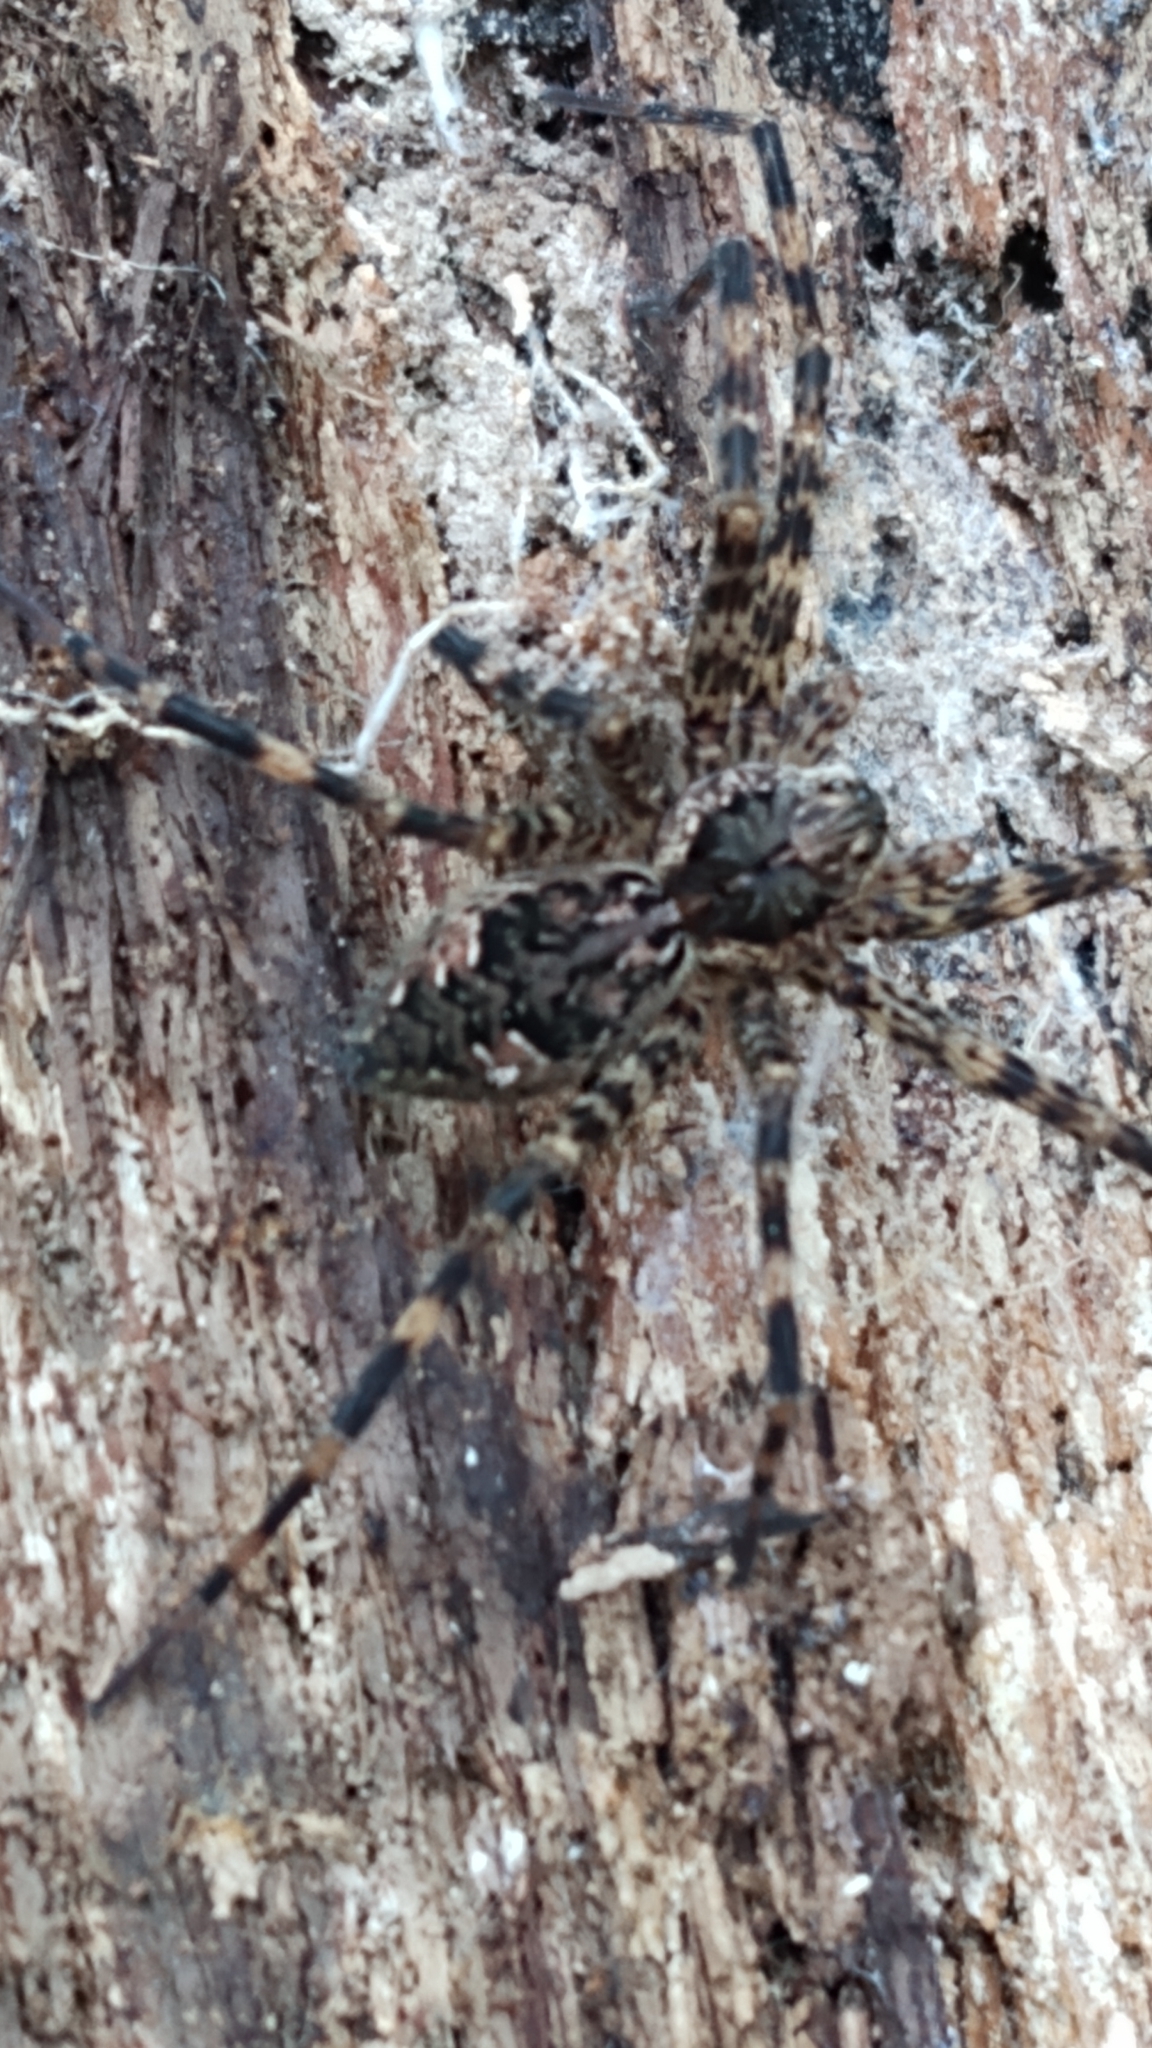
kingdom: Animalia
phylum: Arthropoda
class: Arachnida
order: Araneae
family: Pisauridae
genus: Dolomedes
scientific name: Dolomedes tenebrosus
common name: Dark fishing spider
